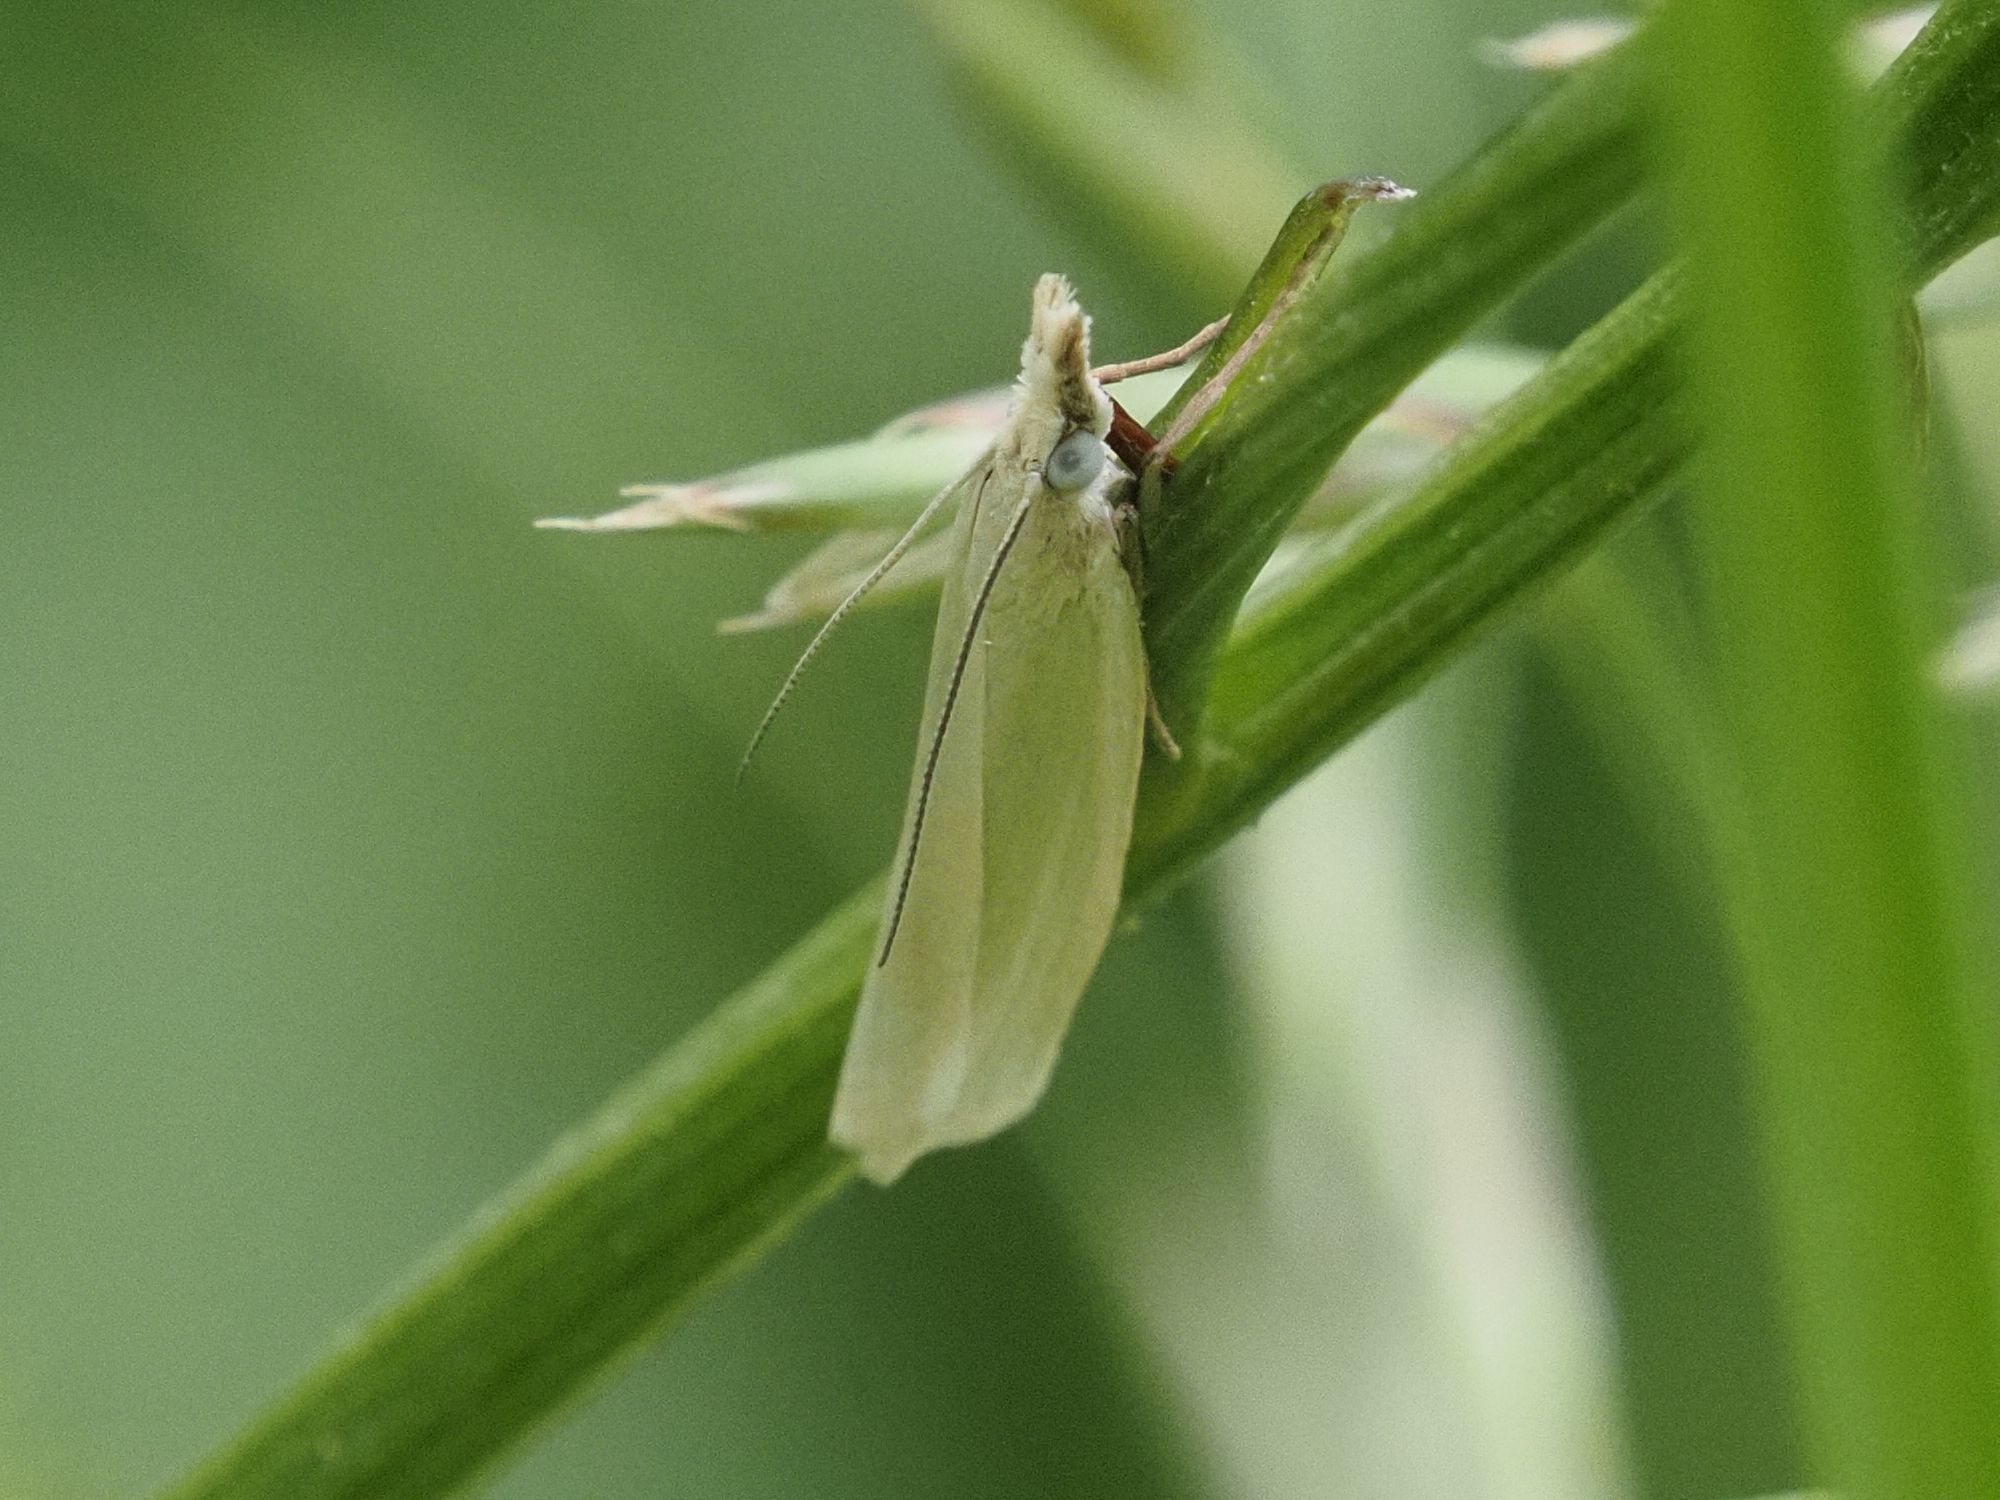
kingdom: Animalia
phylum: Arthropoda
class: Insecta
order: Lepidoptera
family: Crambidae
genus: Crambus
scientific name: Crambus perlellus
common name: Yellow satin veneer
